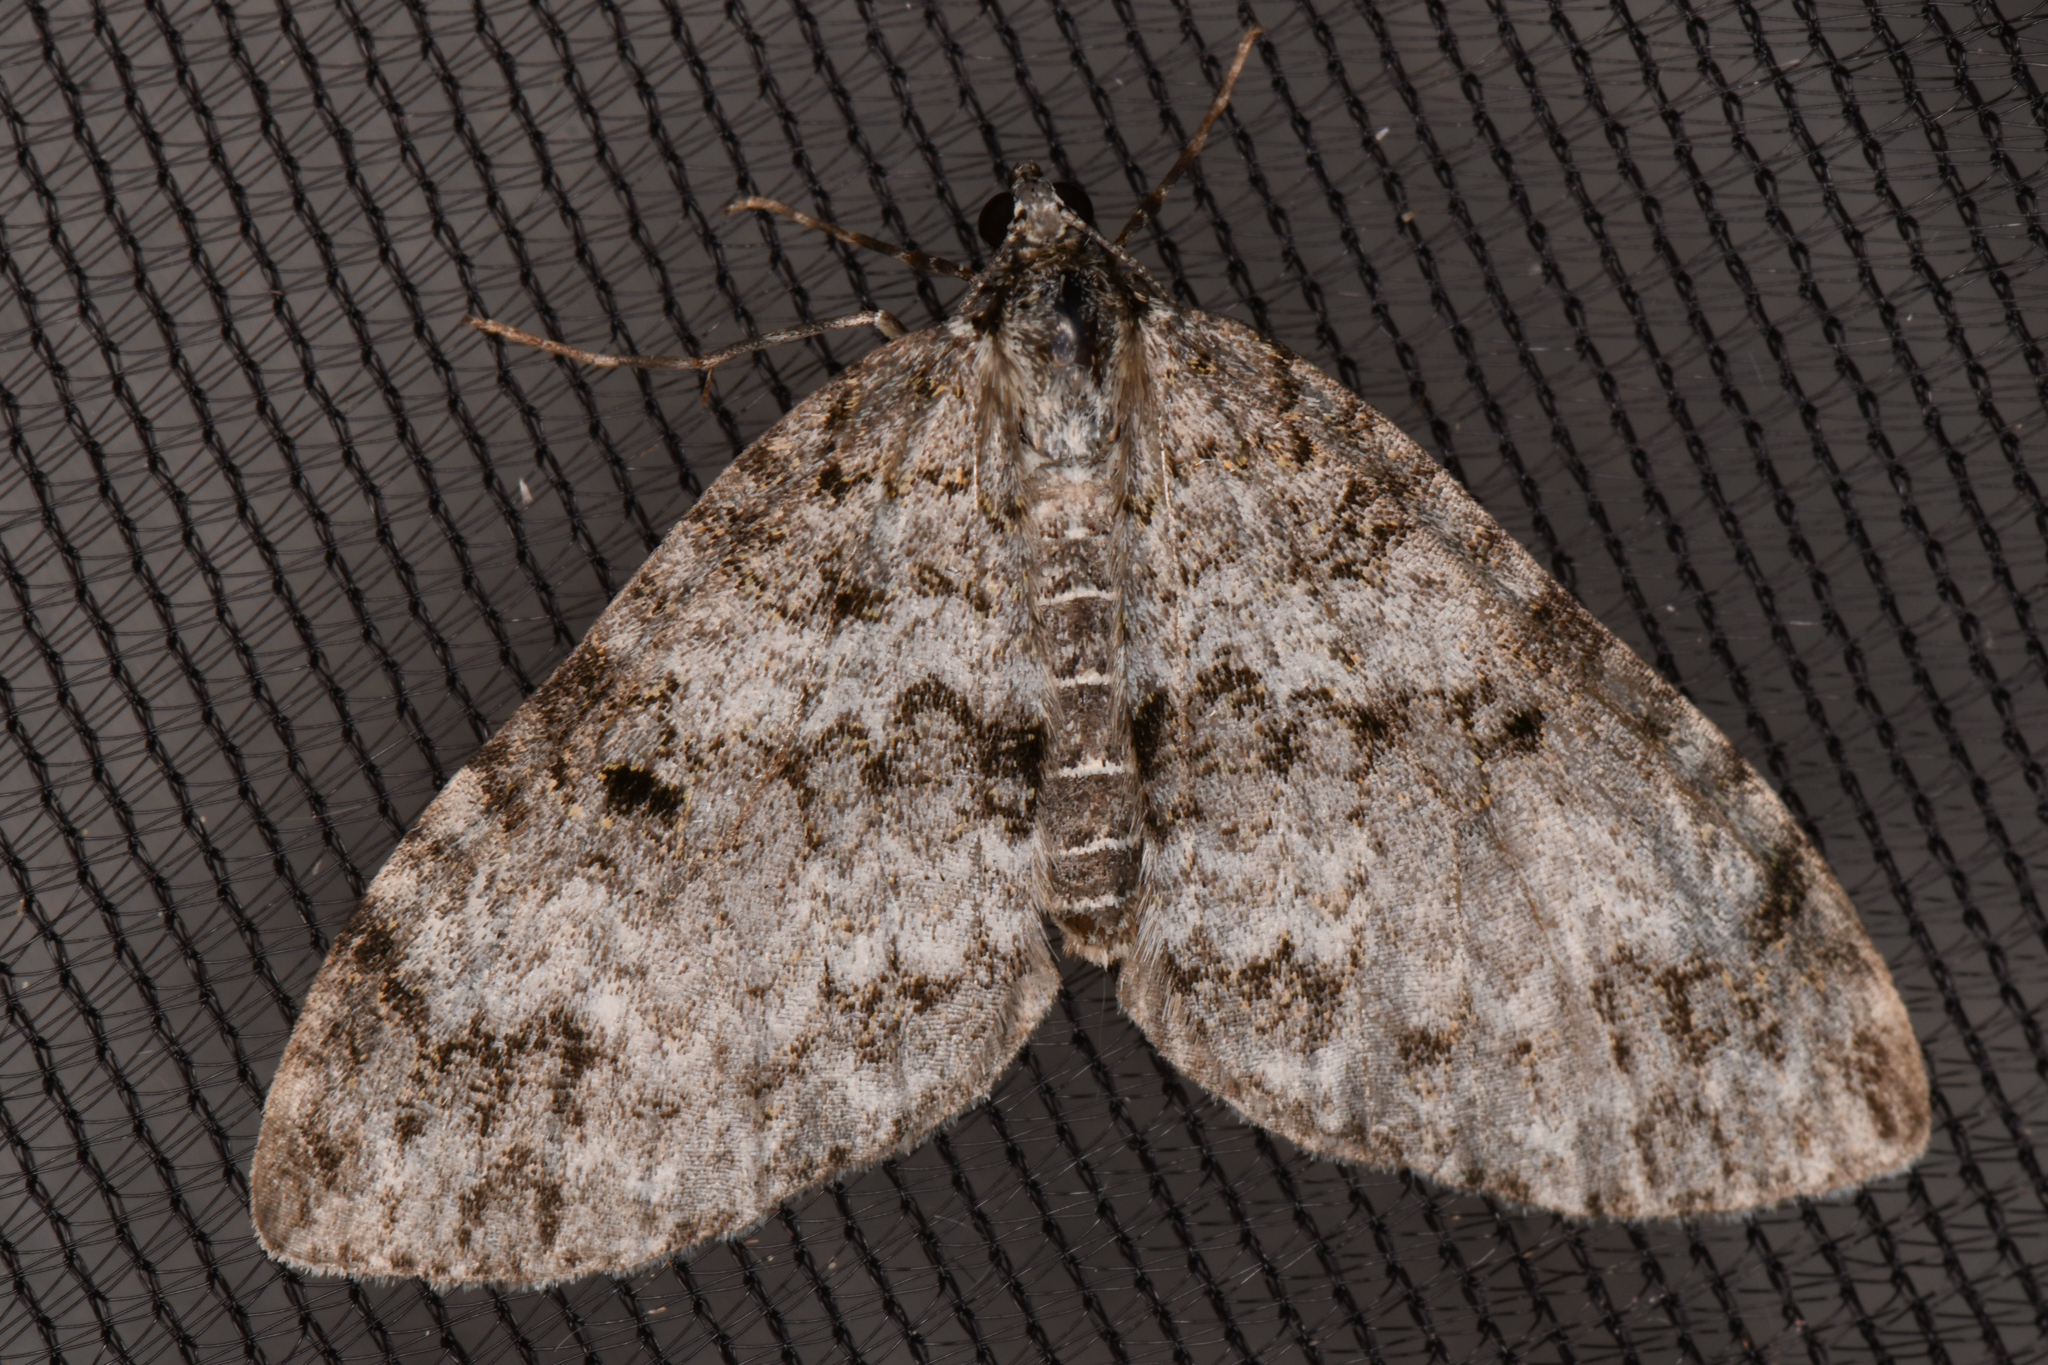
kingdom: Animalia
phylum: Arthropoda
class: Insecta
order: Lepidoptera
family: Geometridae
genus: Spargania
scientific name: Spargania magnoliata
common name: Double-banded carpet
